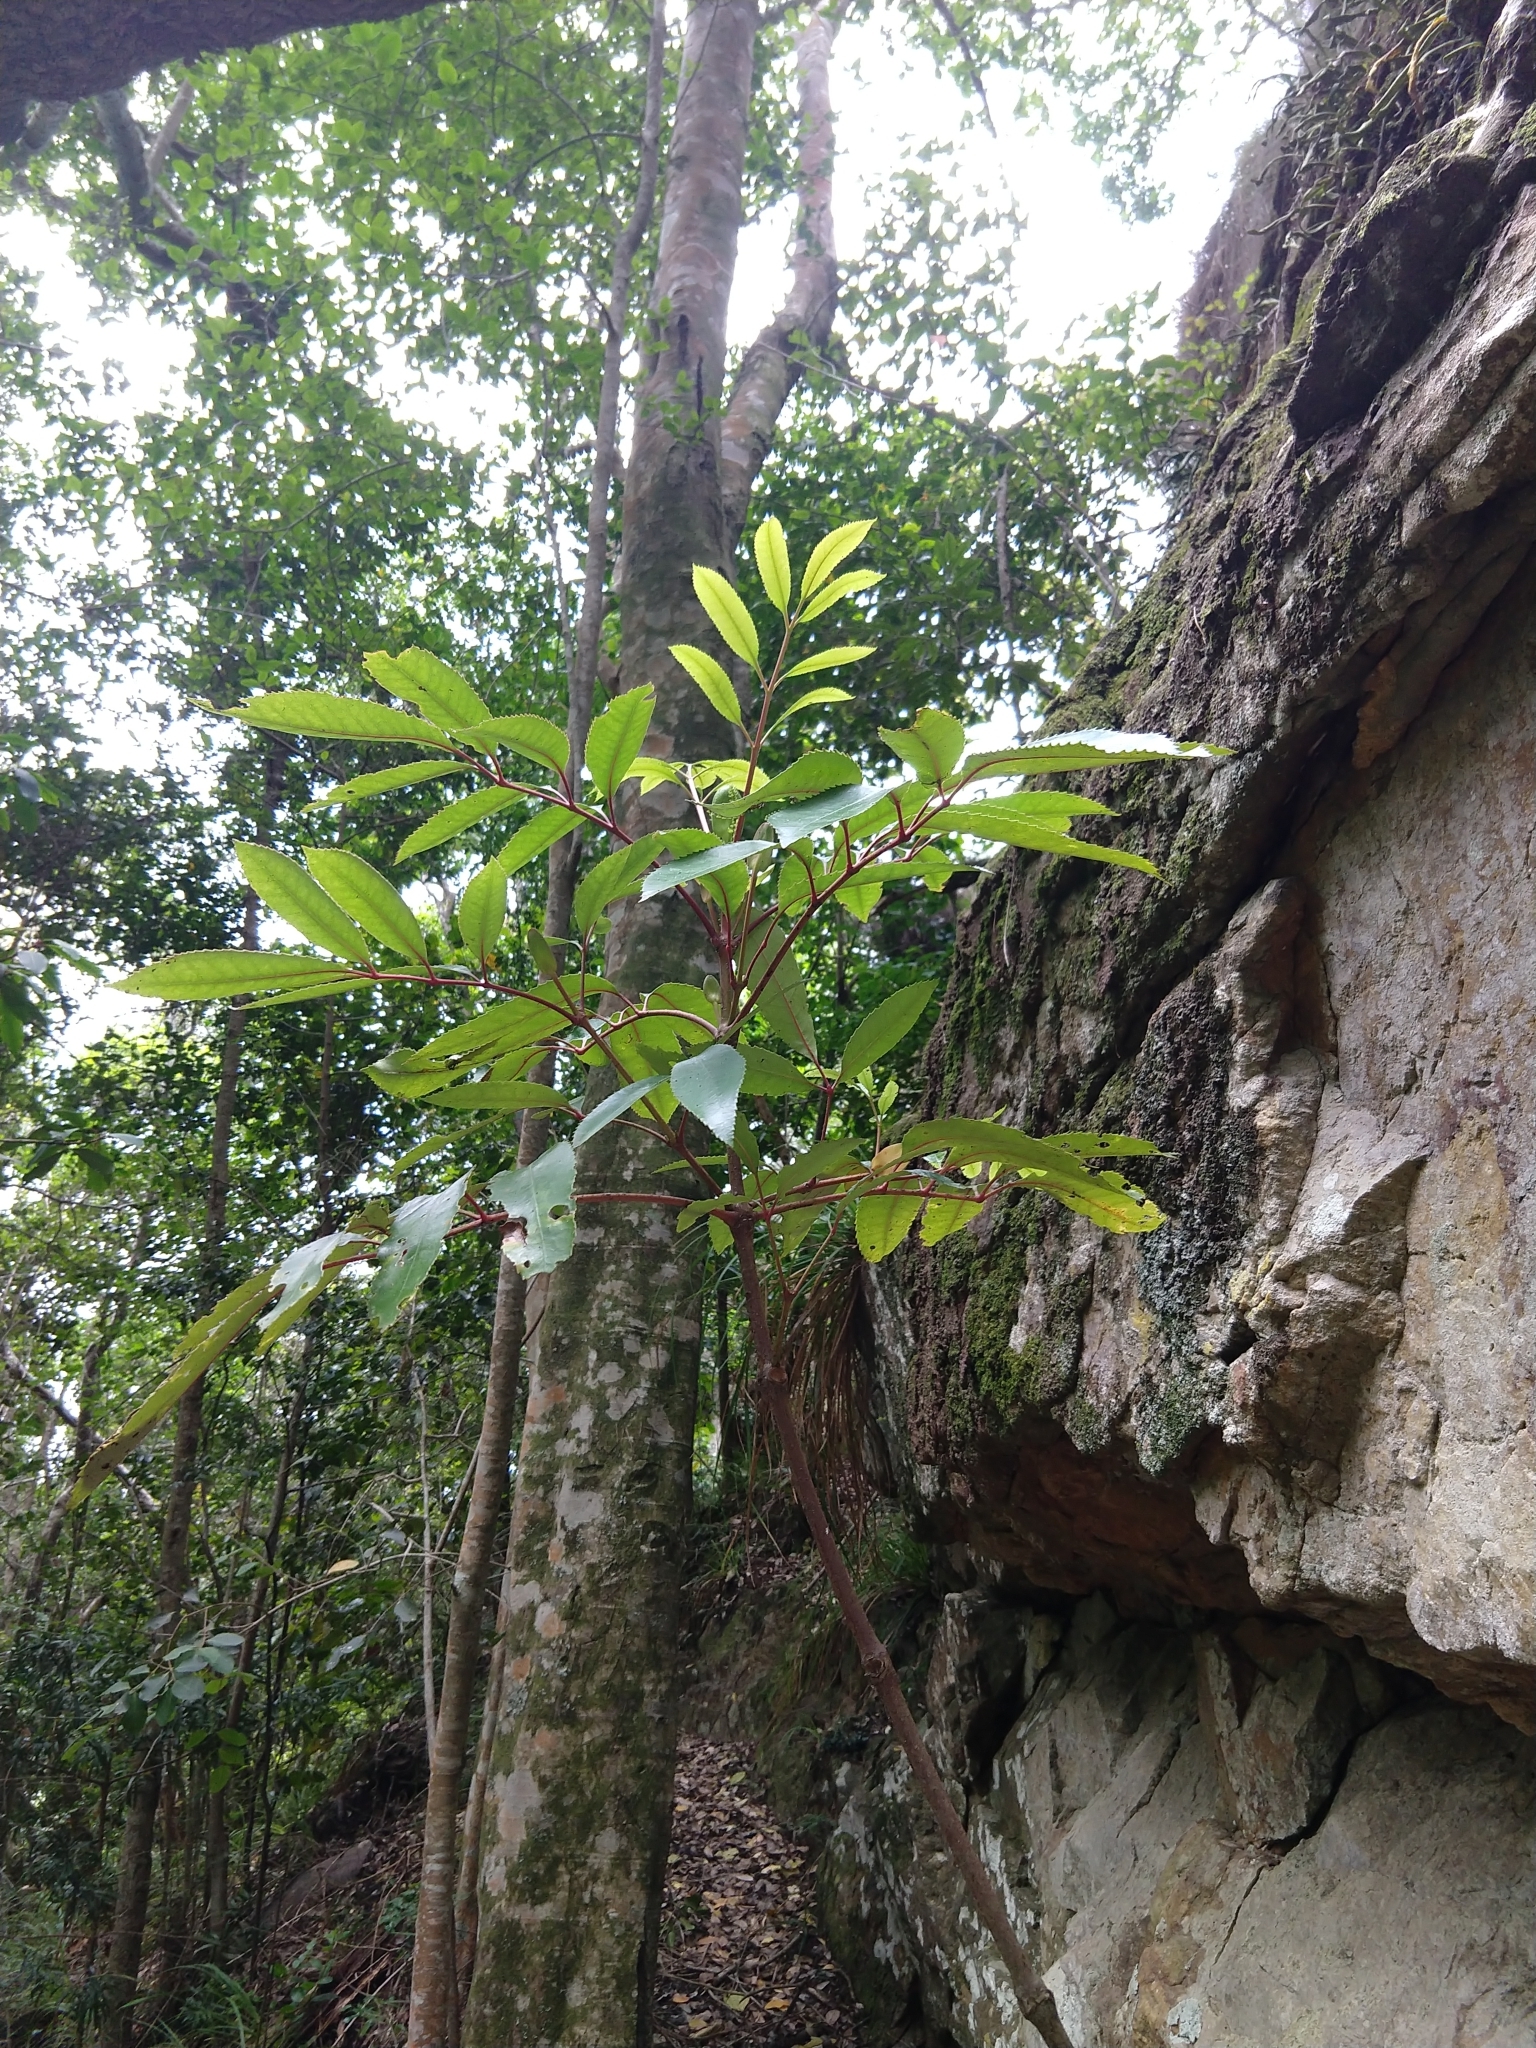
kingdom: Plantae
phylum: Tracheophyta
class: Magnoliopsida
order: Oxalidales
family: Cunoniaceae
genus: Cunonia
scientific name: Cunonia capensis
